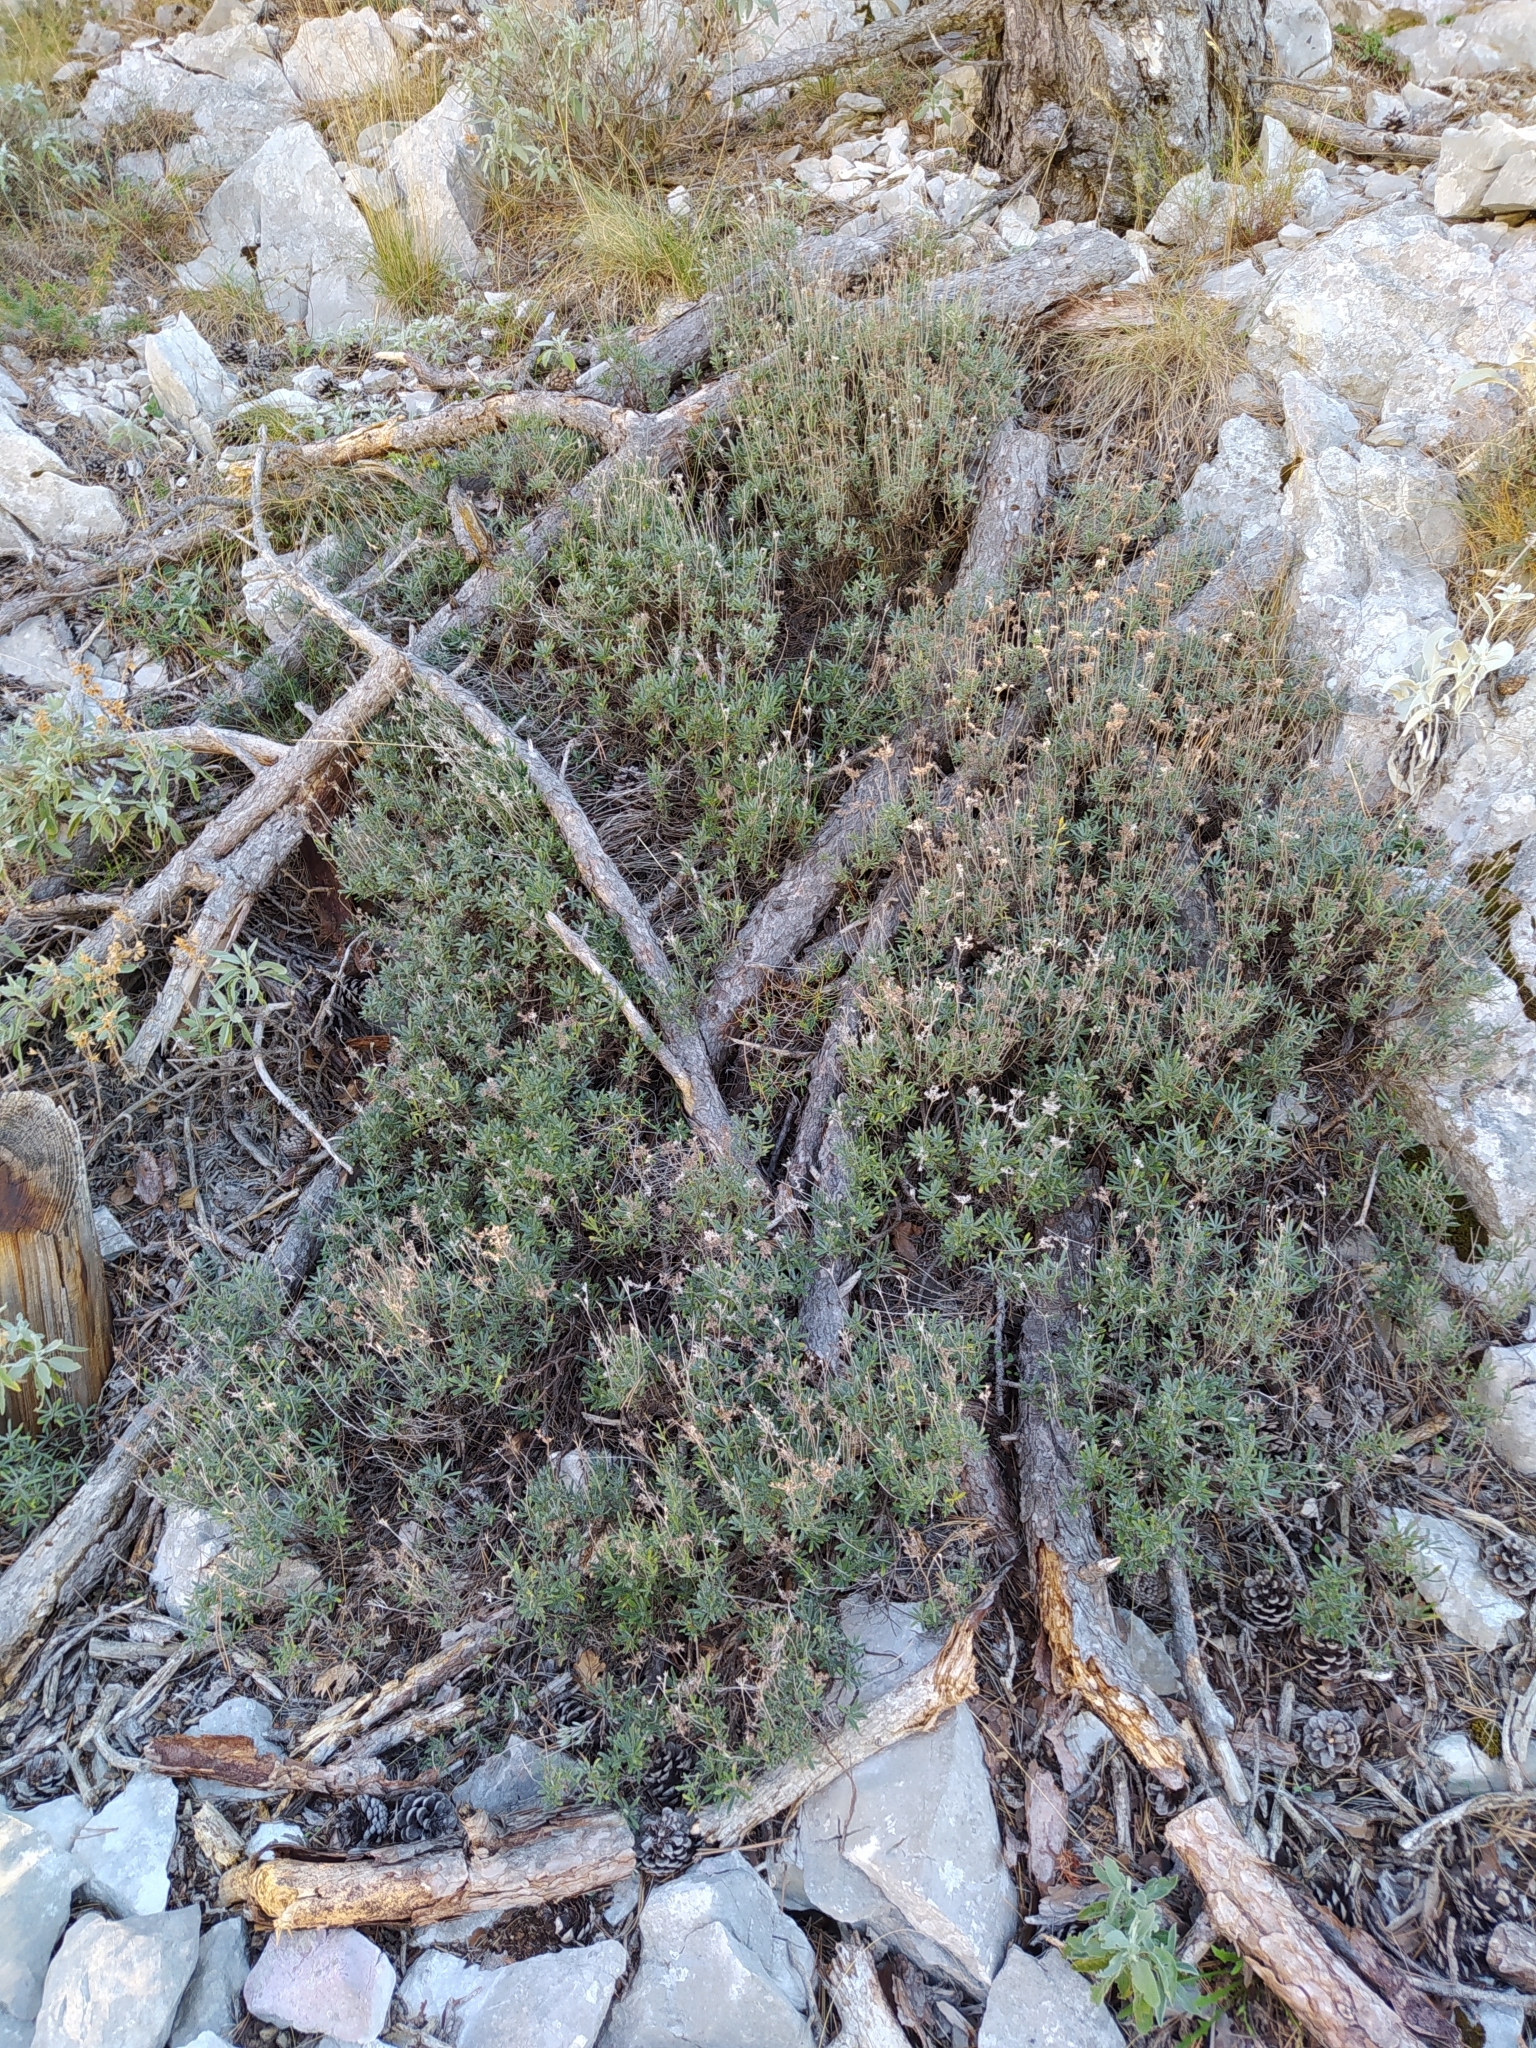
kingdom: Plantae
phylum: Tracheophyta
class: Magnoliopsida
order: Boraginales
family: Boraginaceae
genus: Moltkia
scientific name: Moltkia petraea
